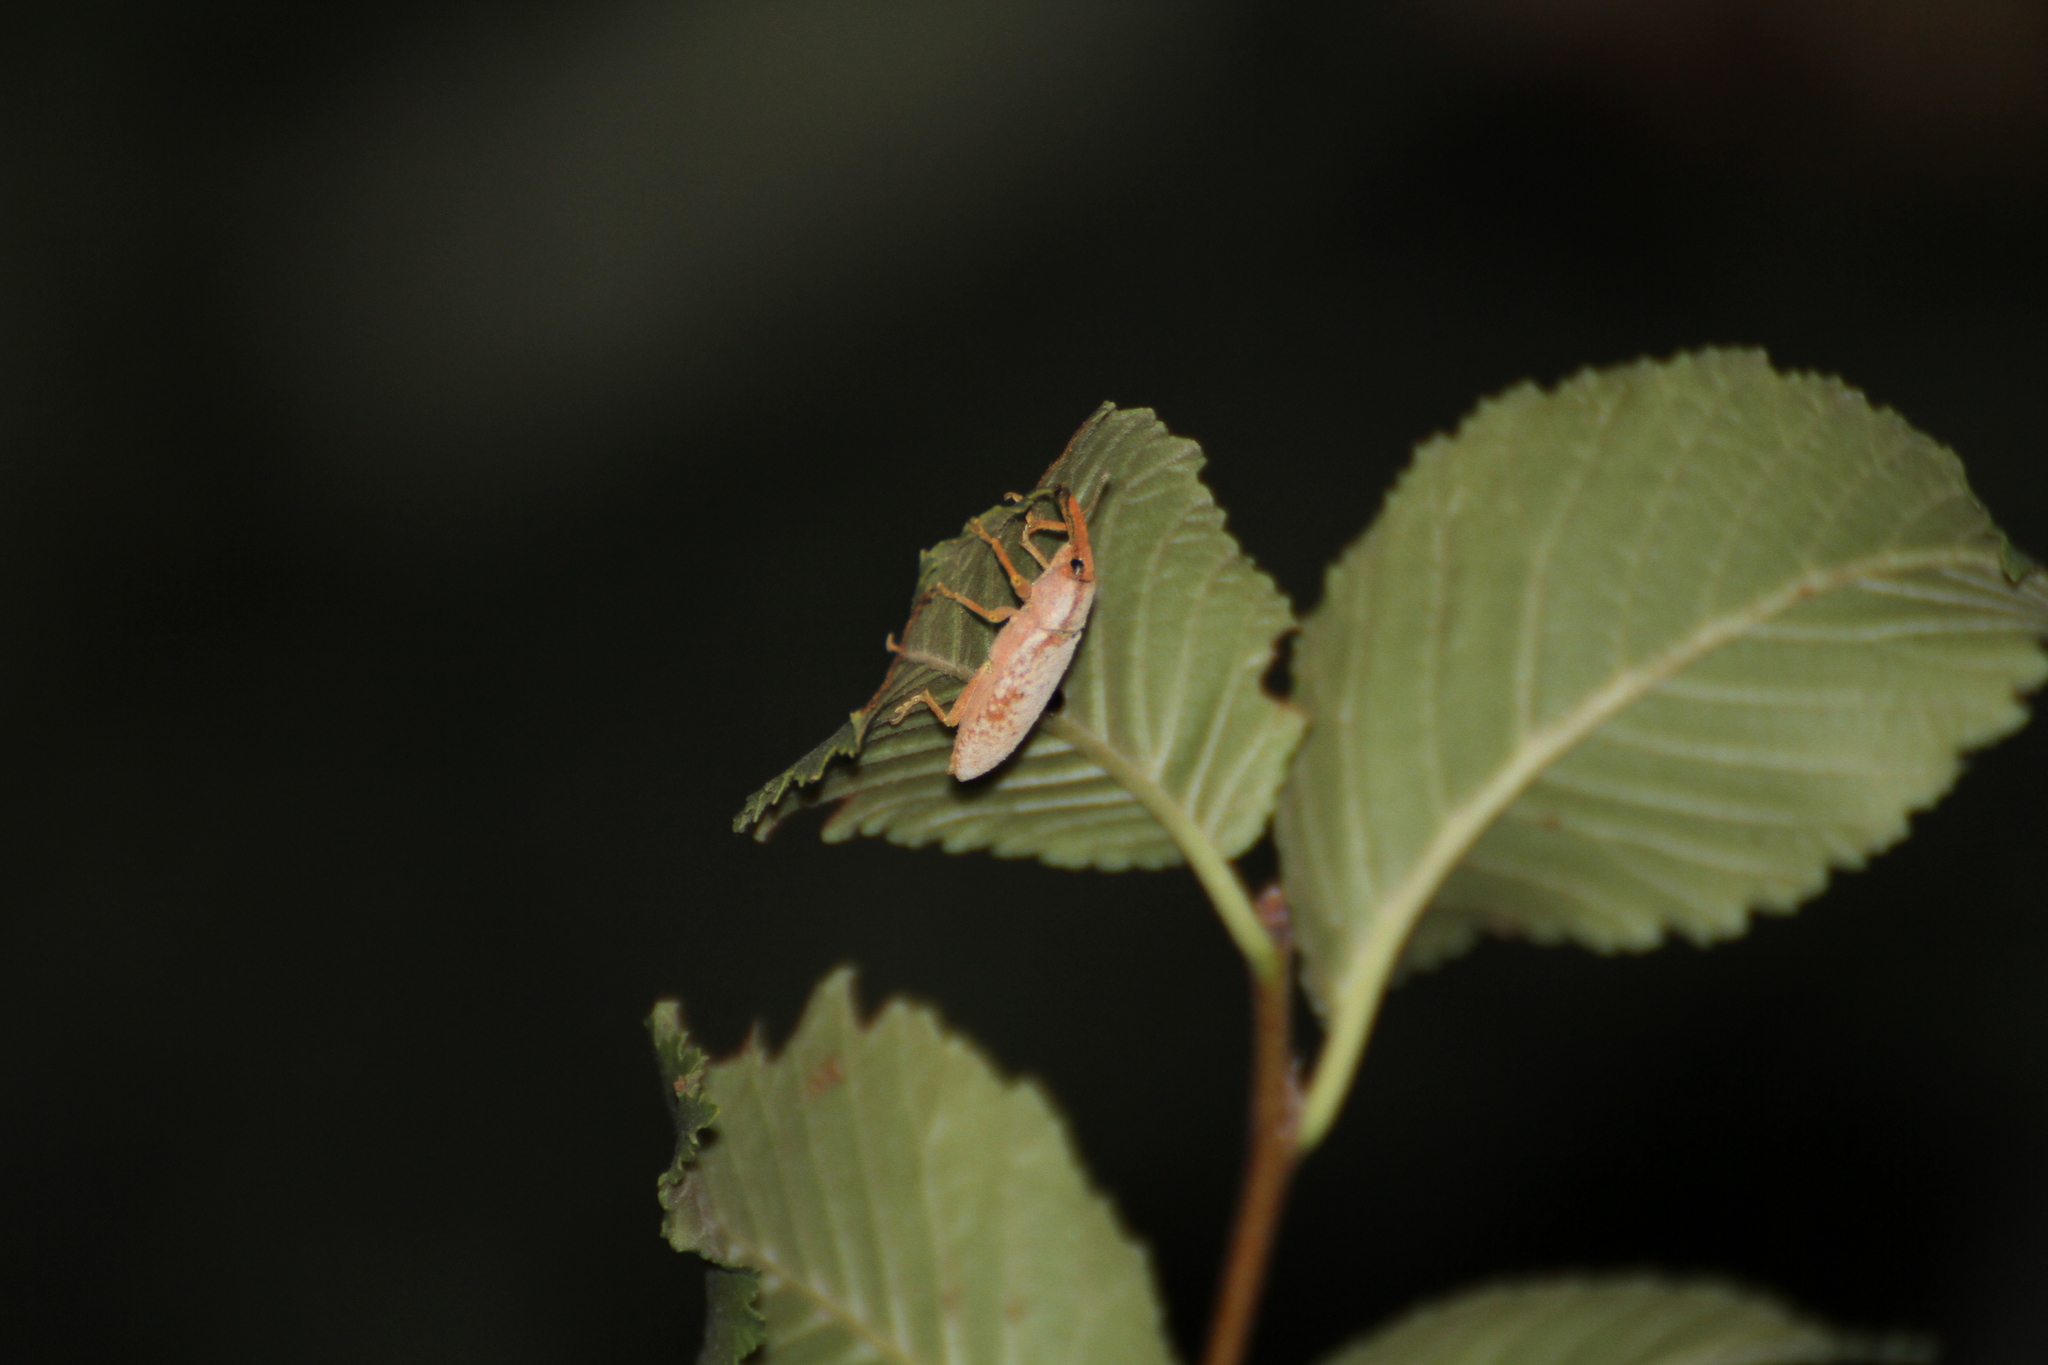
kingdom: Animalia
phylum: Arthropoda
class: Insecta
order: Coleoptera
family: Curculionidae
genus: Lixus
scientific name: Lixus pulverulentus
